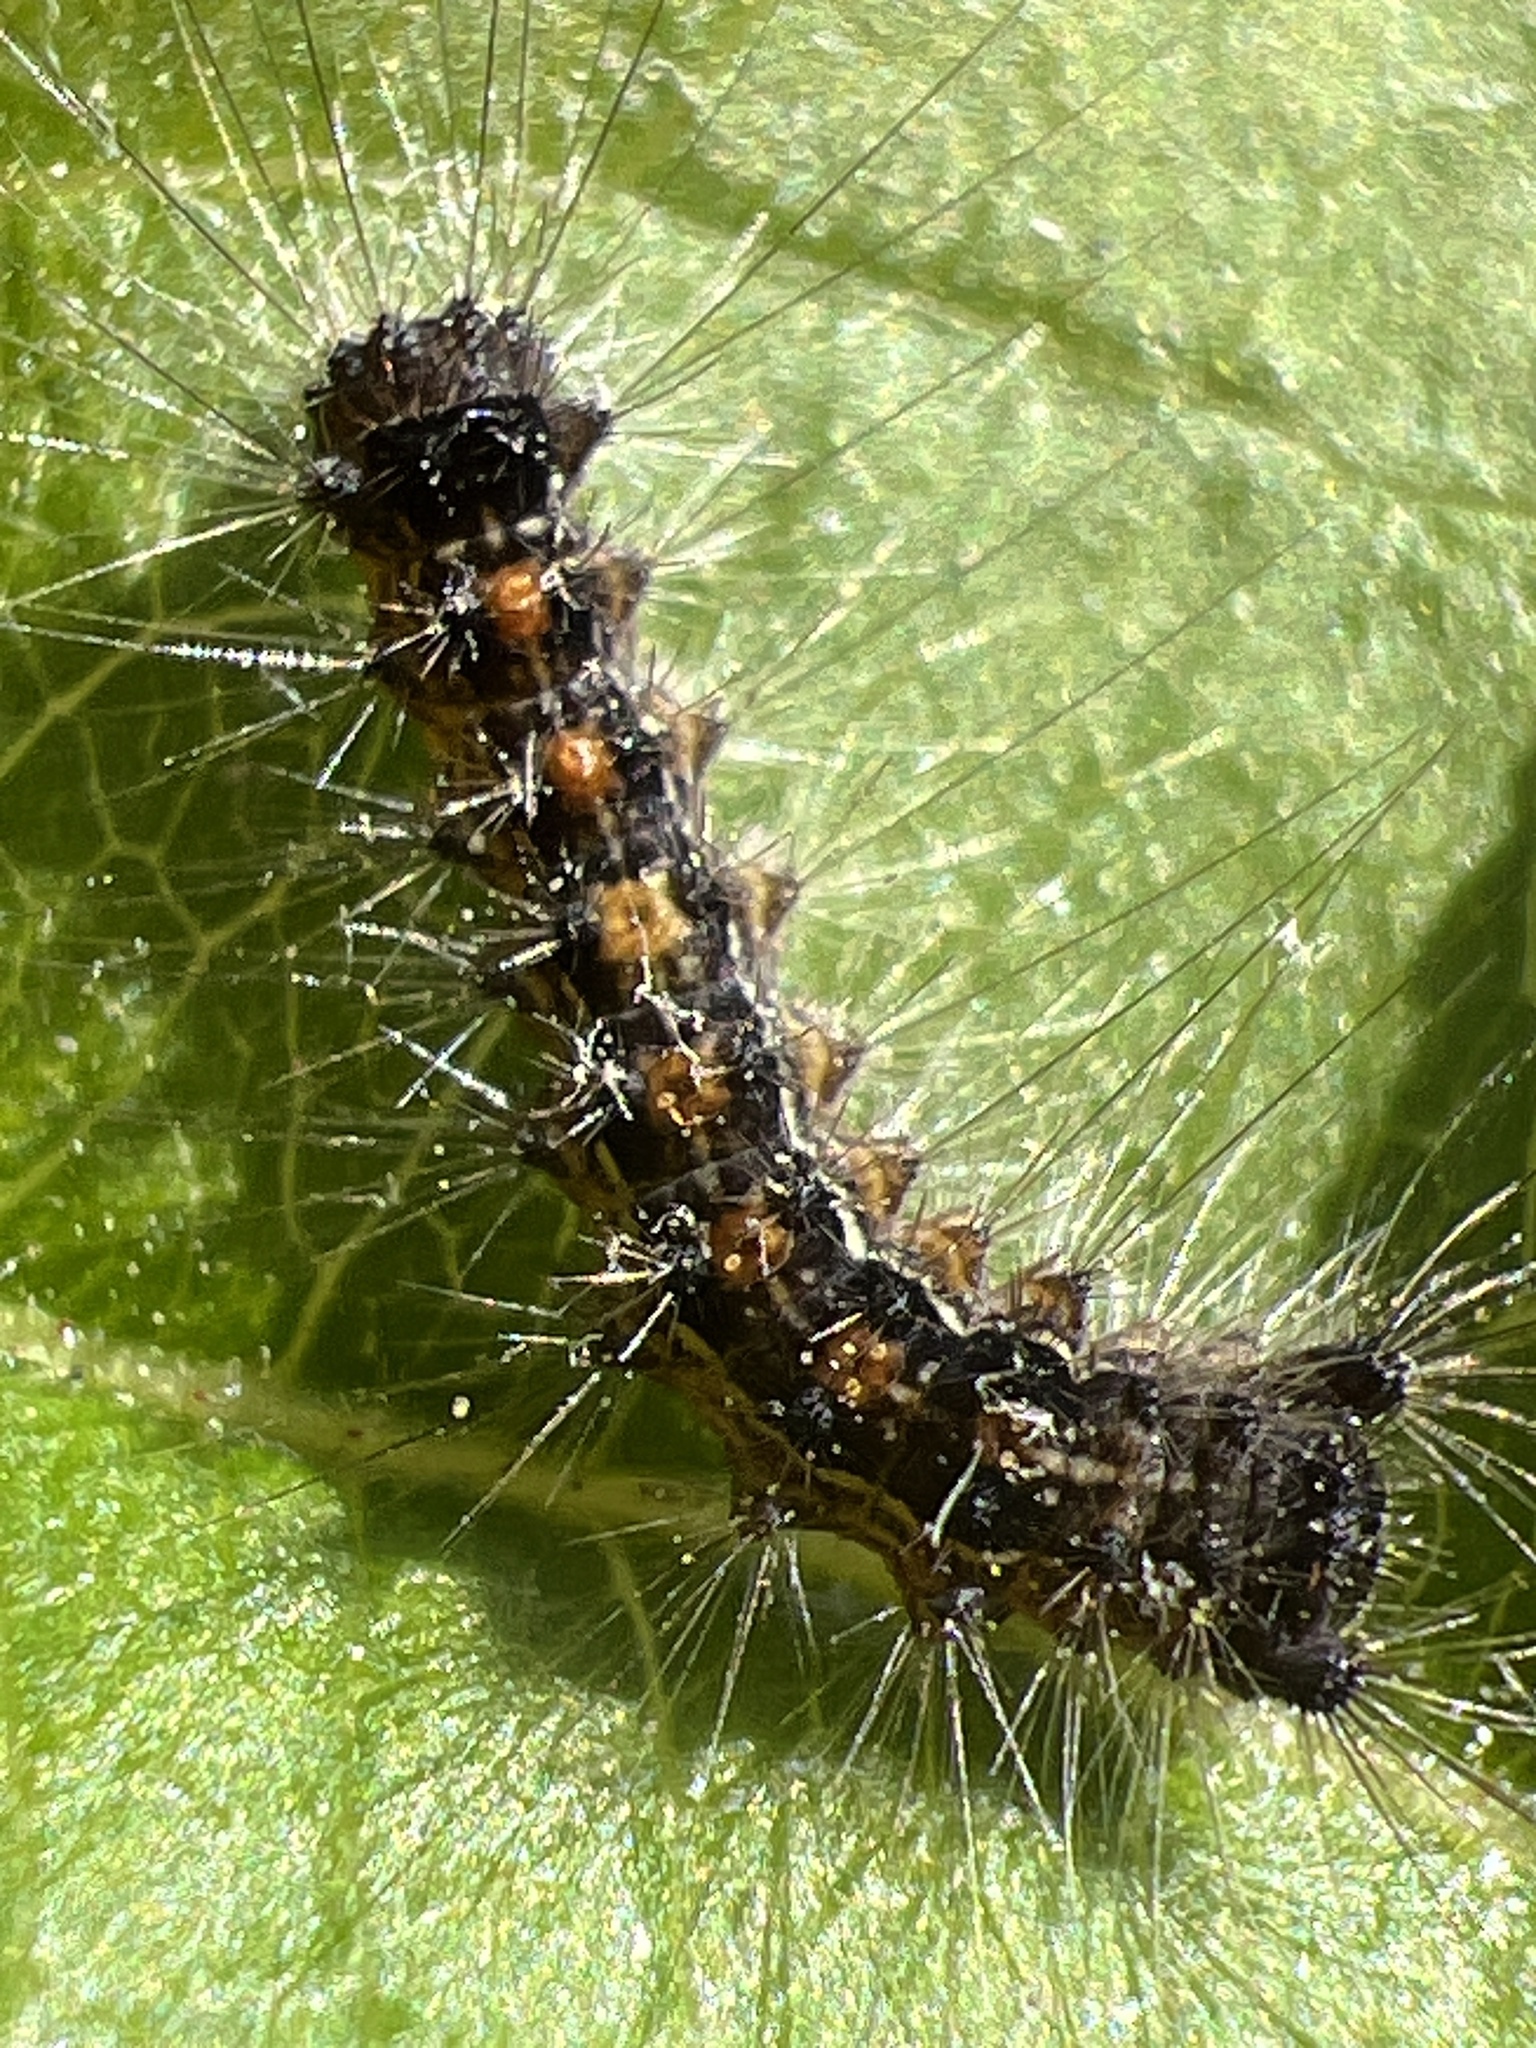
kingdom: Animalia
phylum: Arthropoda
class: Insecta
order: Lepidoptera
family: Erebidae
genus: Lymantria
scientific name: Lymantria dispar
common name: Gypsy moth
